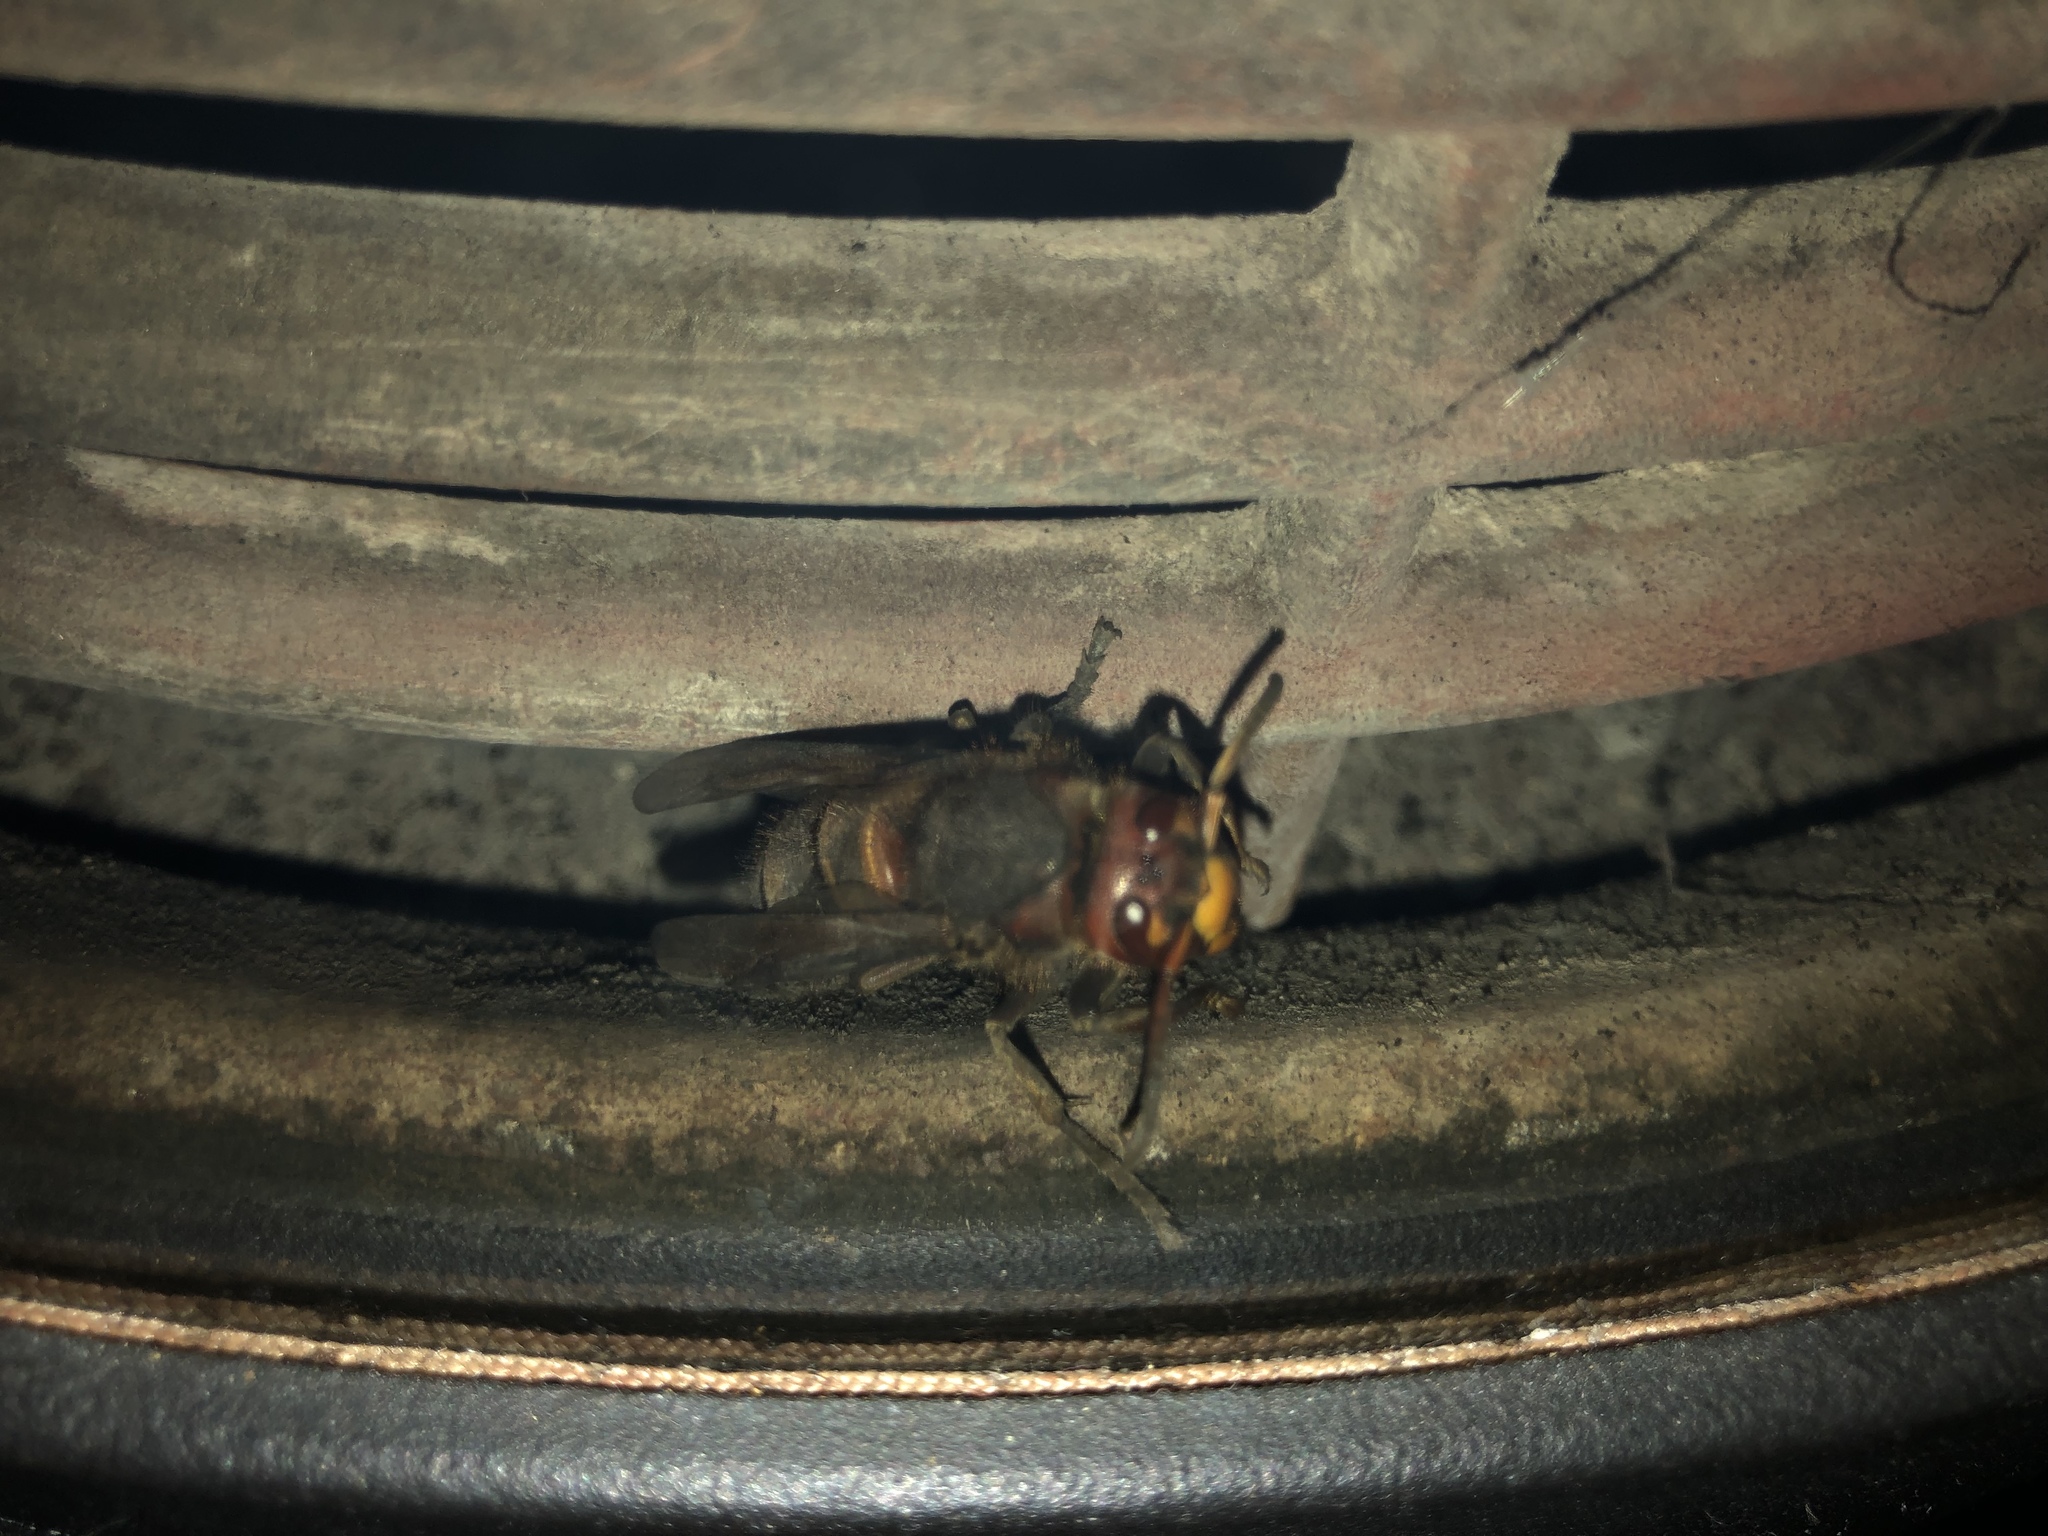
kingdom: Animalia
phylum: Arthropoda
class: Insecta
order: Hymenoptera
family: Vespidae
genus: Vespa
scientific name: Vespa crabro
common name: Hornet
